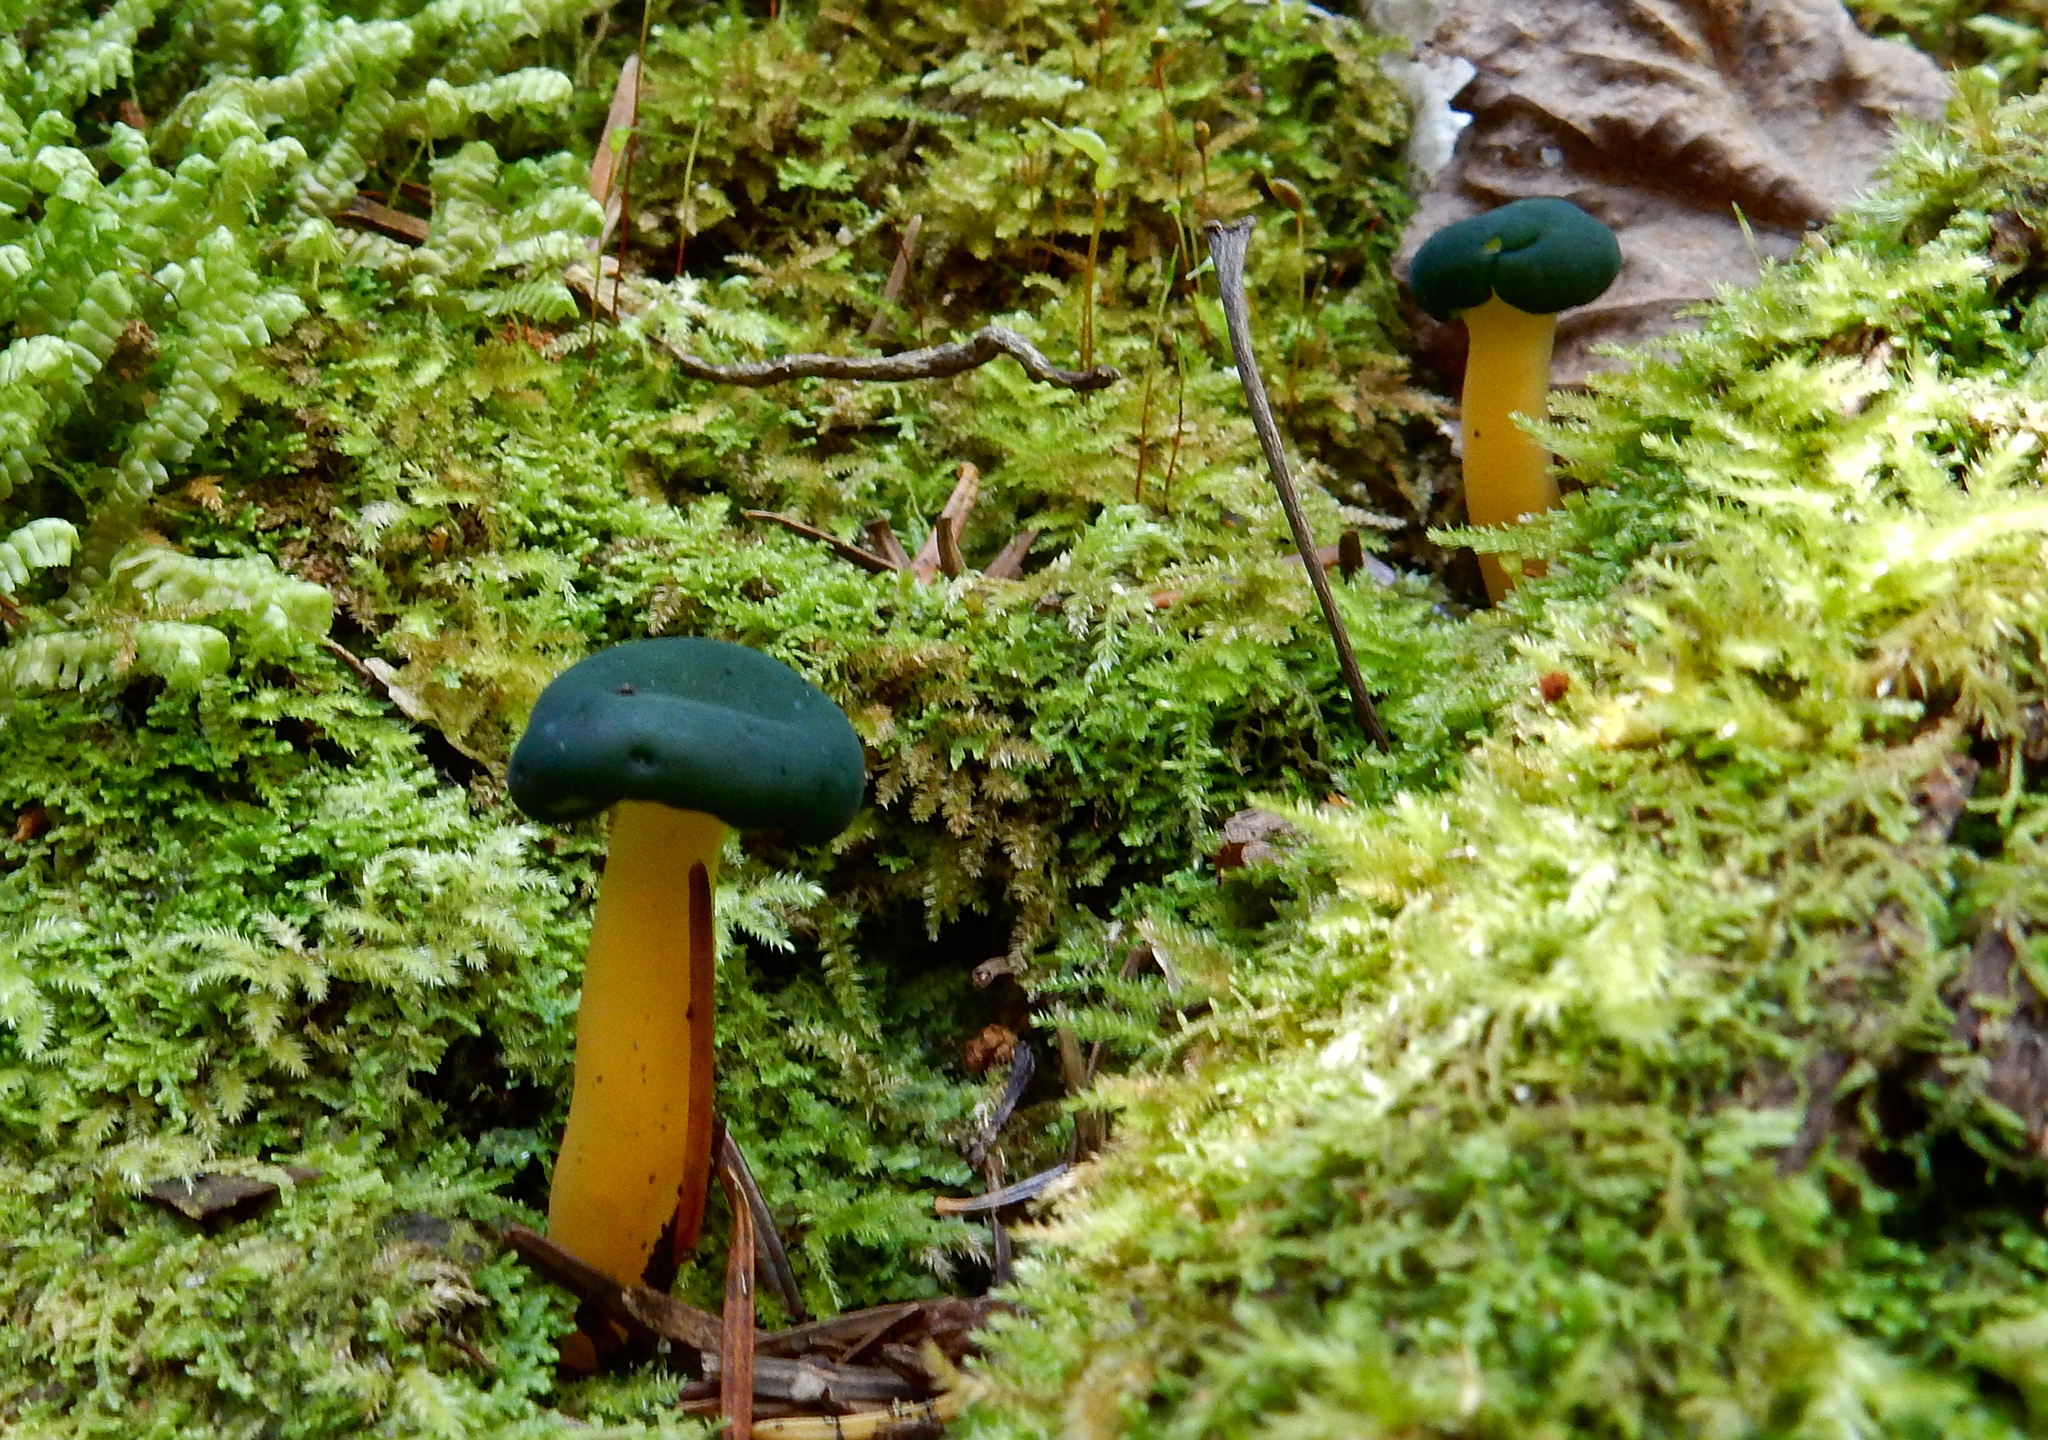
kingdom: Fungi
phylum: Ascomycota
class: Leotiomycetes
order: Leotiales
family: Leotiaceae
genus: Leotia
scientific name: Leotia lubrica
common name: Jellybaby
